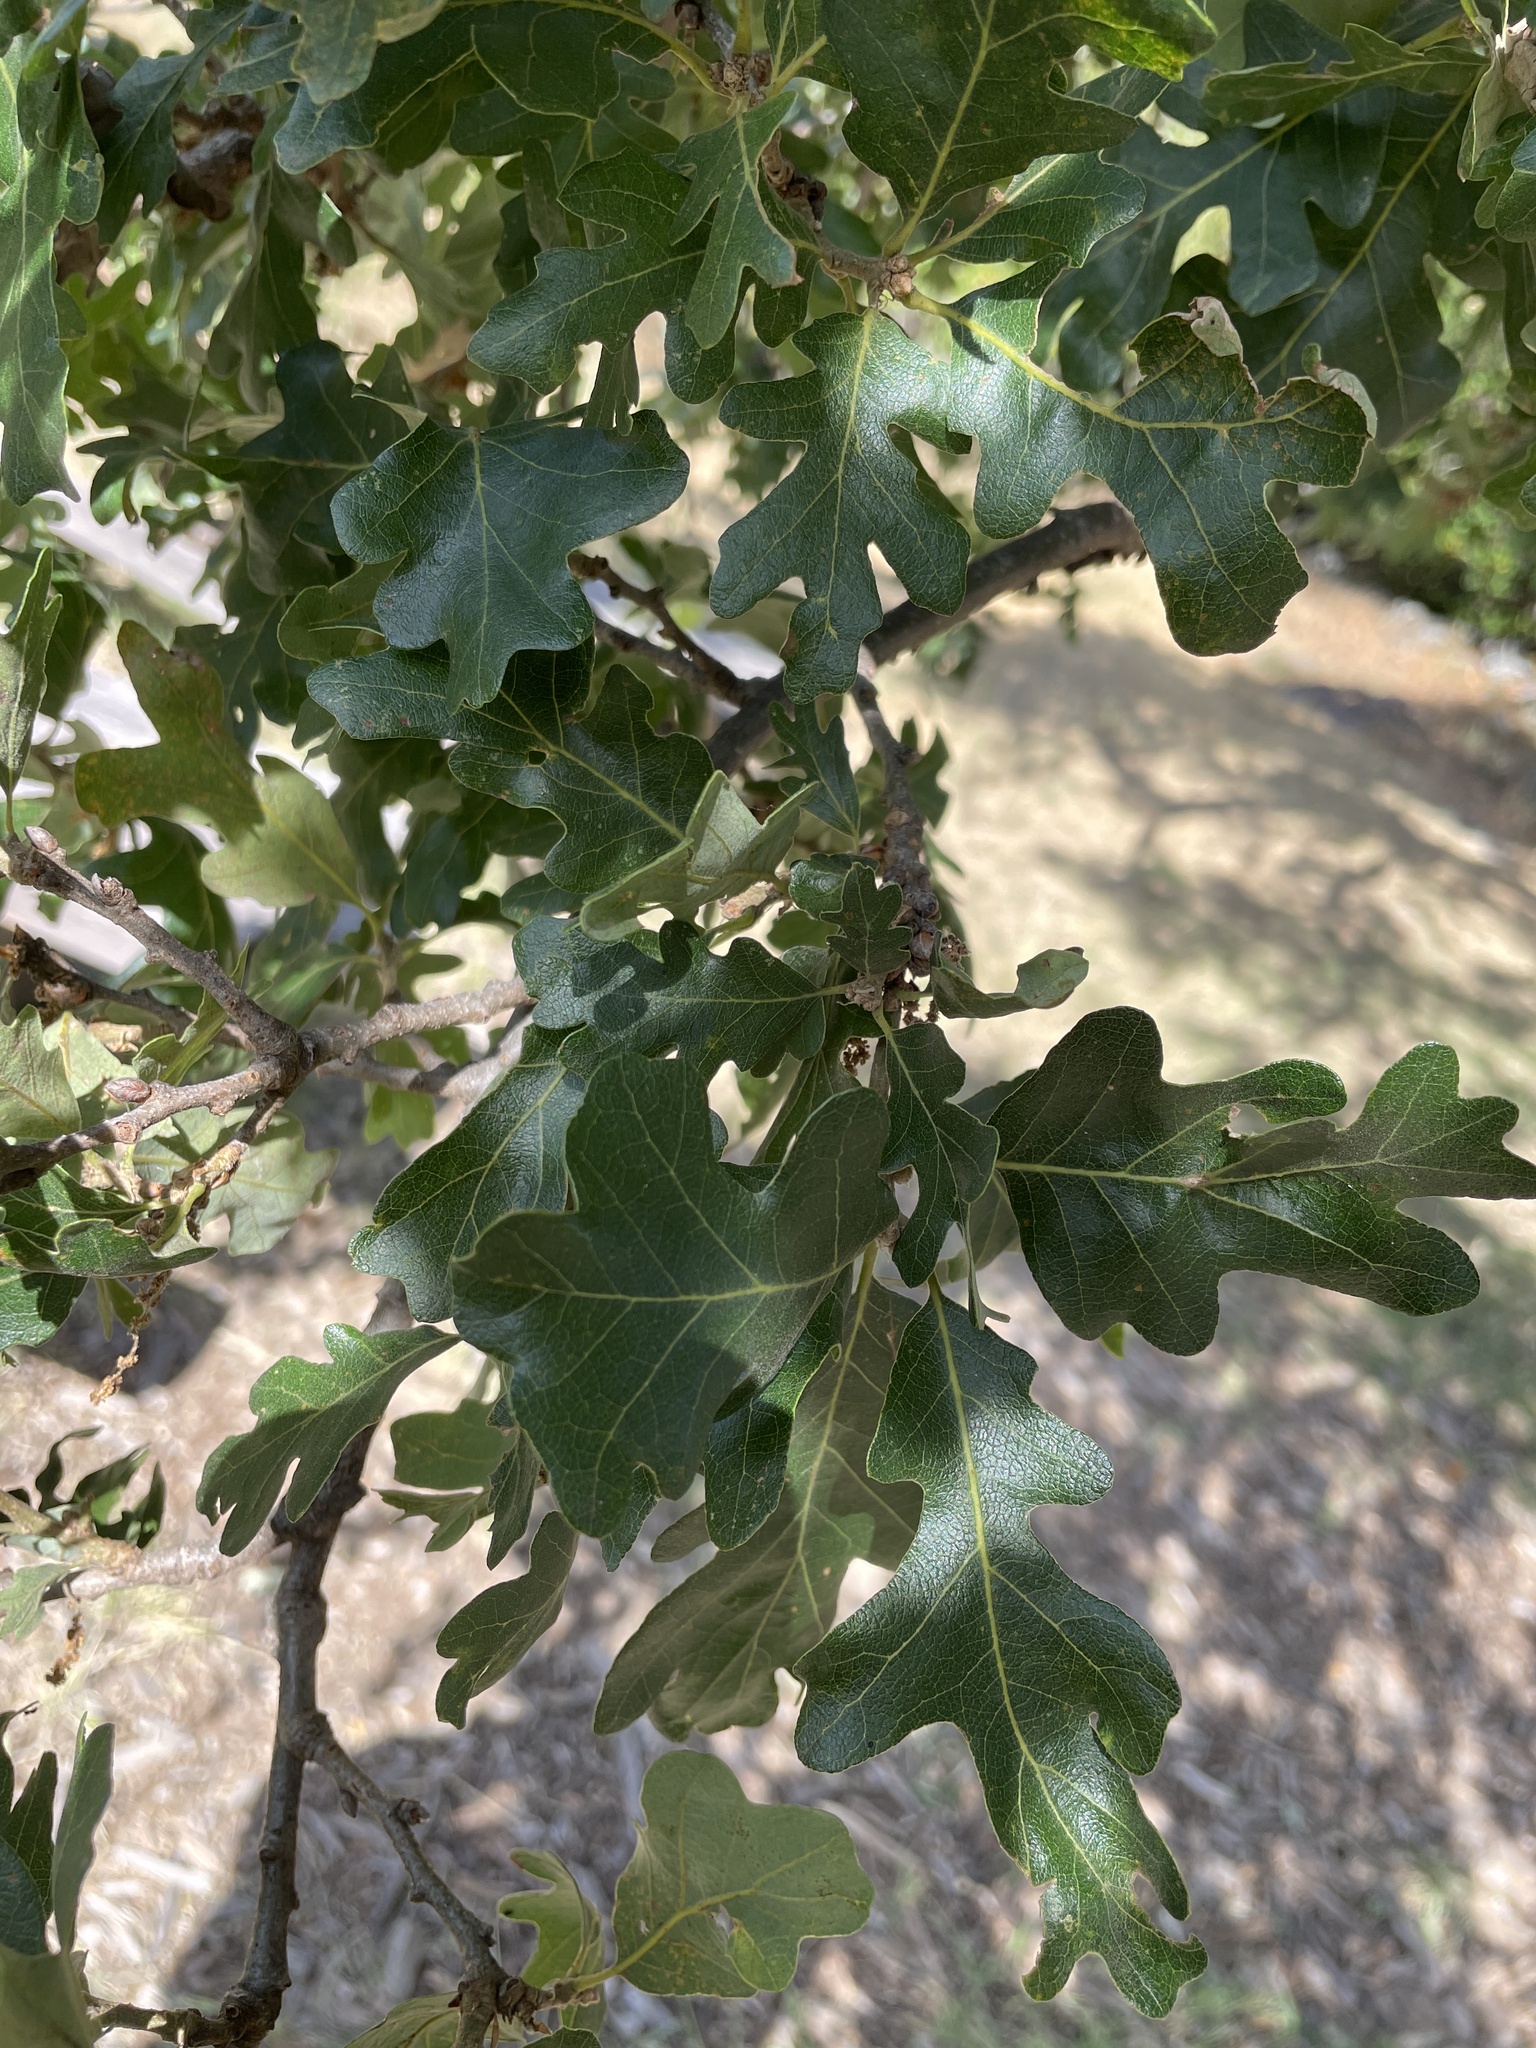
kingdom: Plantae
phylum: Tracheophyta
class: Magnoliopsida
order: Fagales
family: Fagaceae
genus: Quercus
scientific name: Quercus garryana
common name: Garry oak
